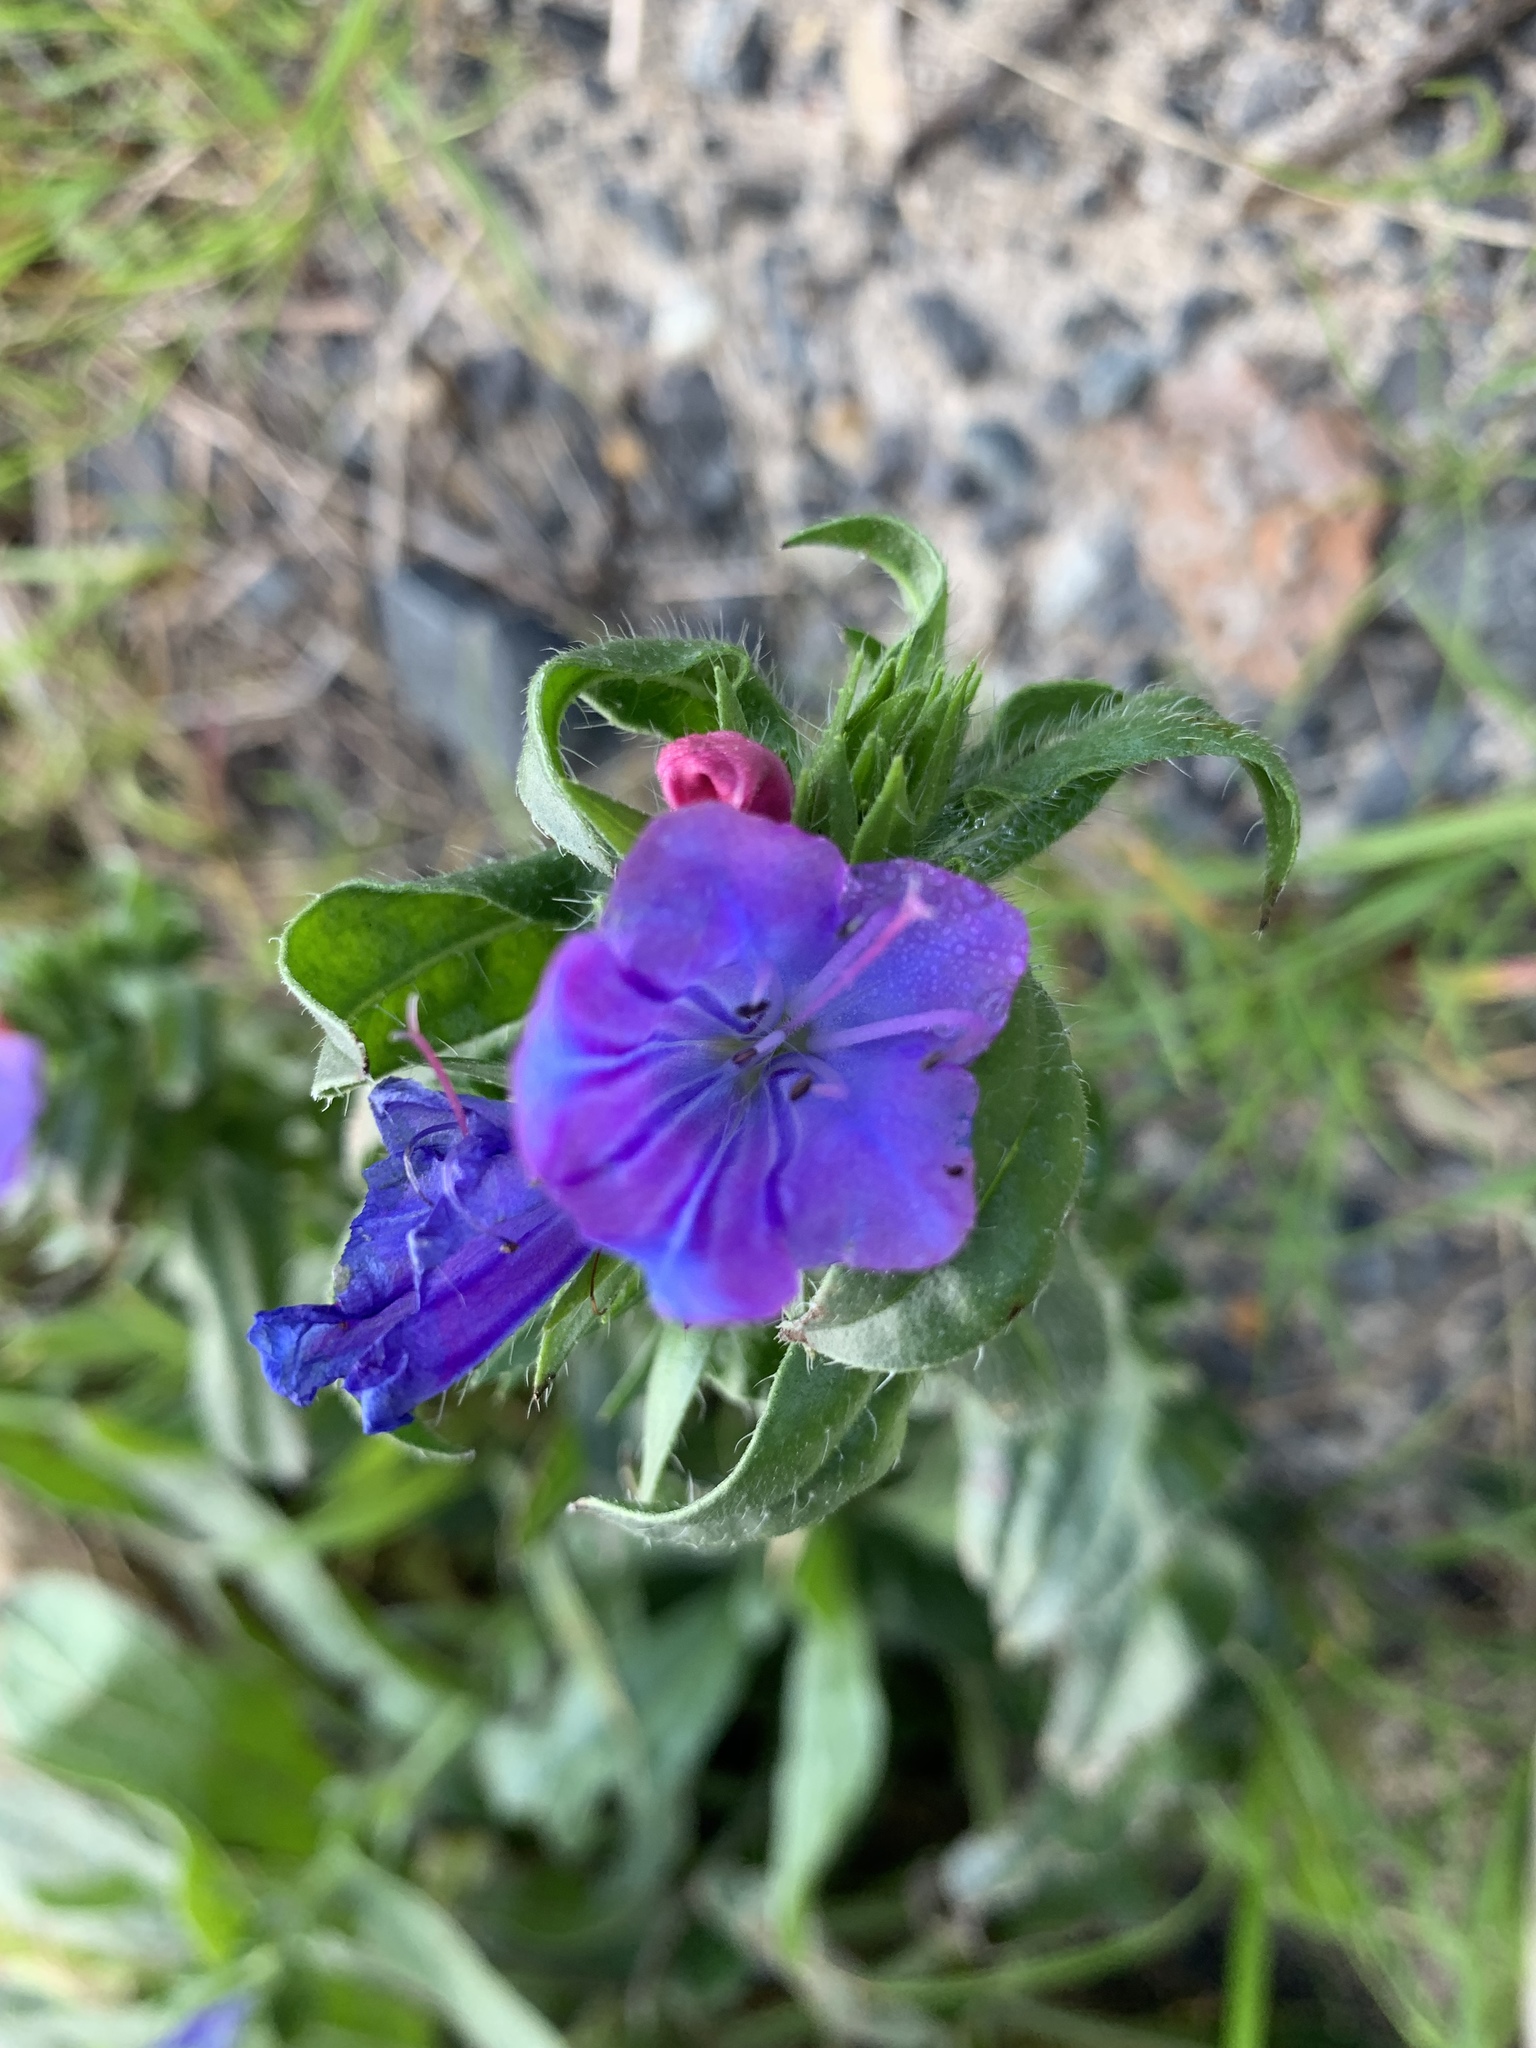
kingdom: Plantae
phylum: Tracheophyta
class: Magnoliopsida
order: Boraginales
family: Boraginaceae
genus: Echium
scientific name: Echium plantagineum
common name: Purple viper's-bugloss
